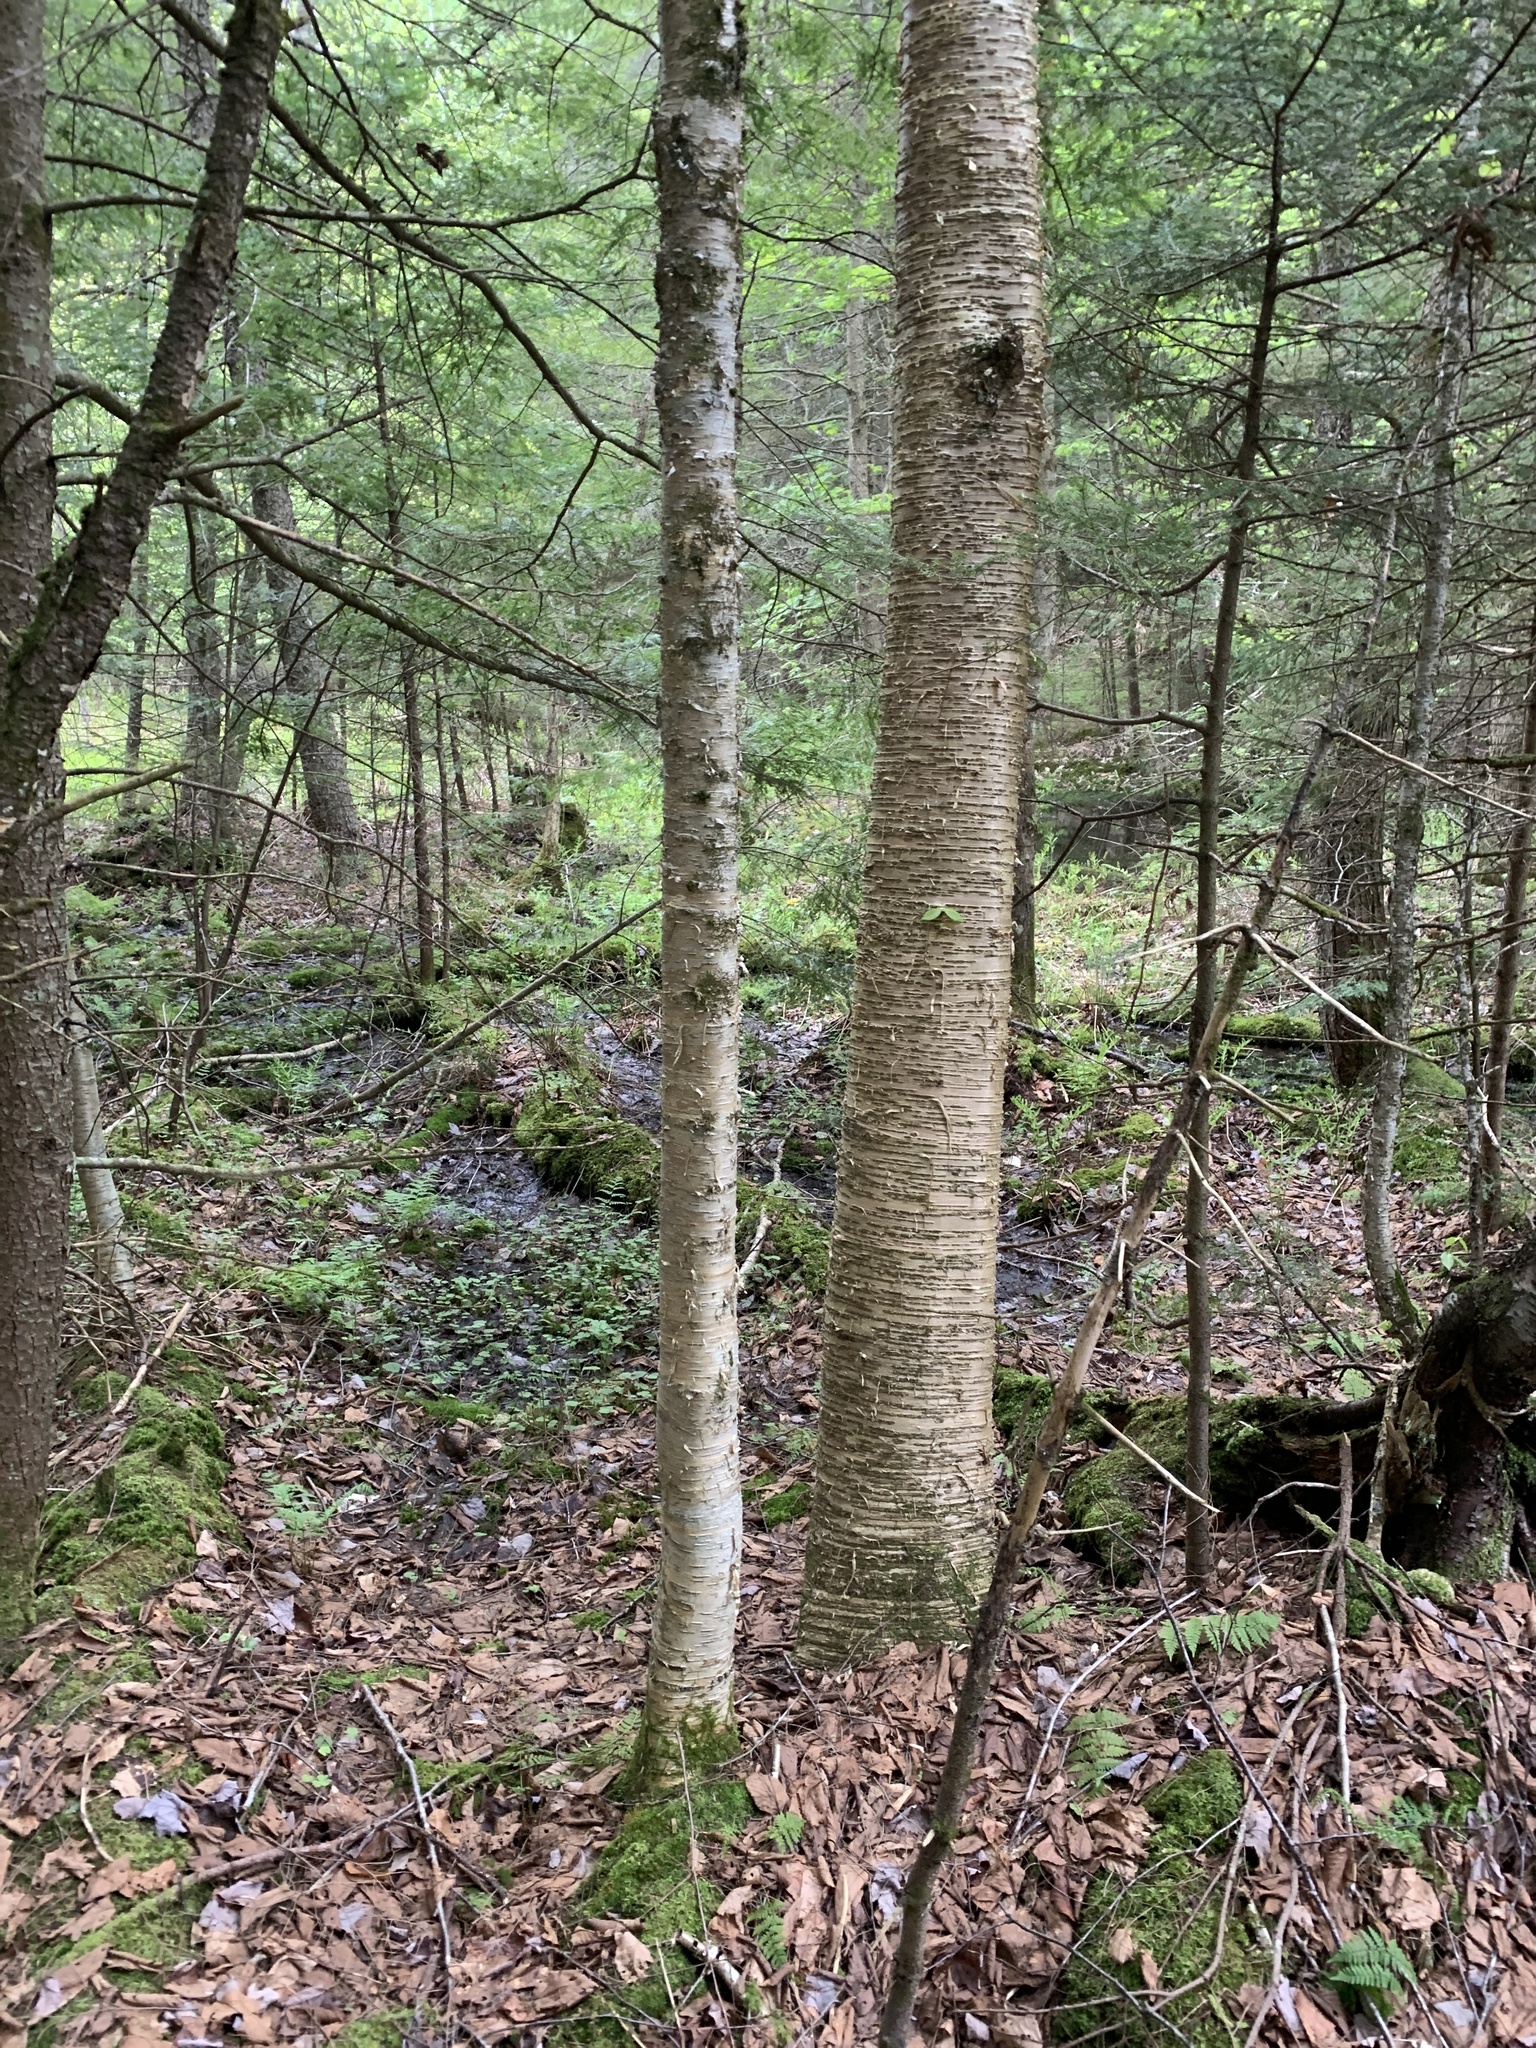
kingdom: Plantae
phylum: Tracheophyta
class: Magnoliopsida
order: Fagales
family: Betulaceae
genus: Betula
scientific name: Betula alleghaniensis
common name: Yellow birch
